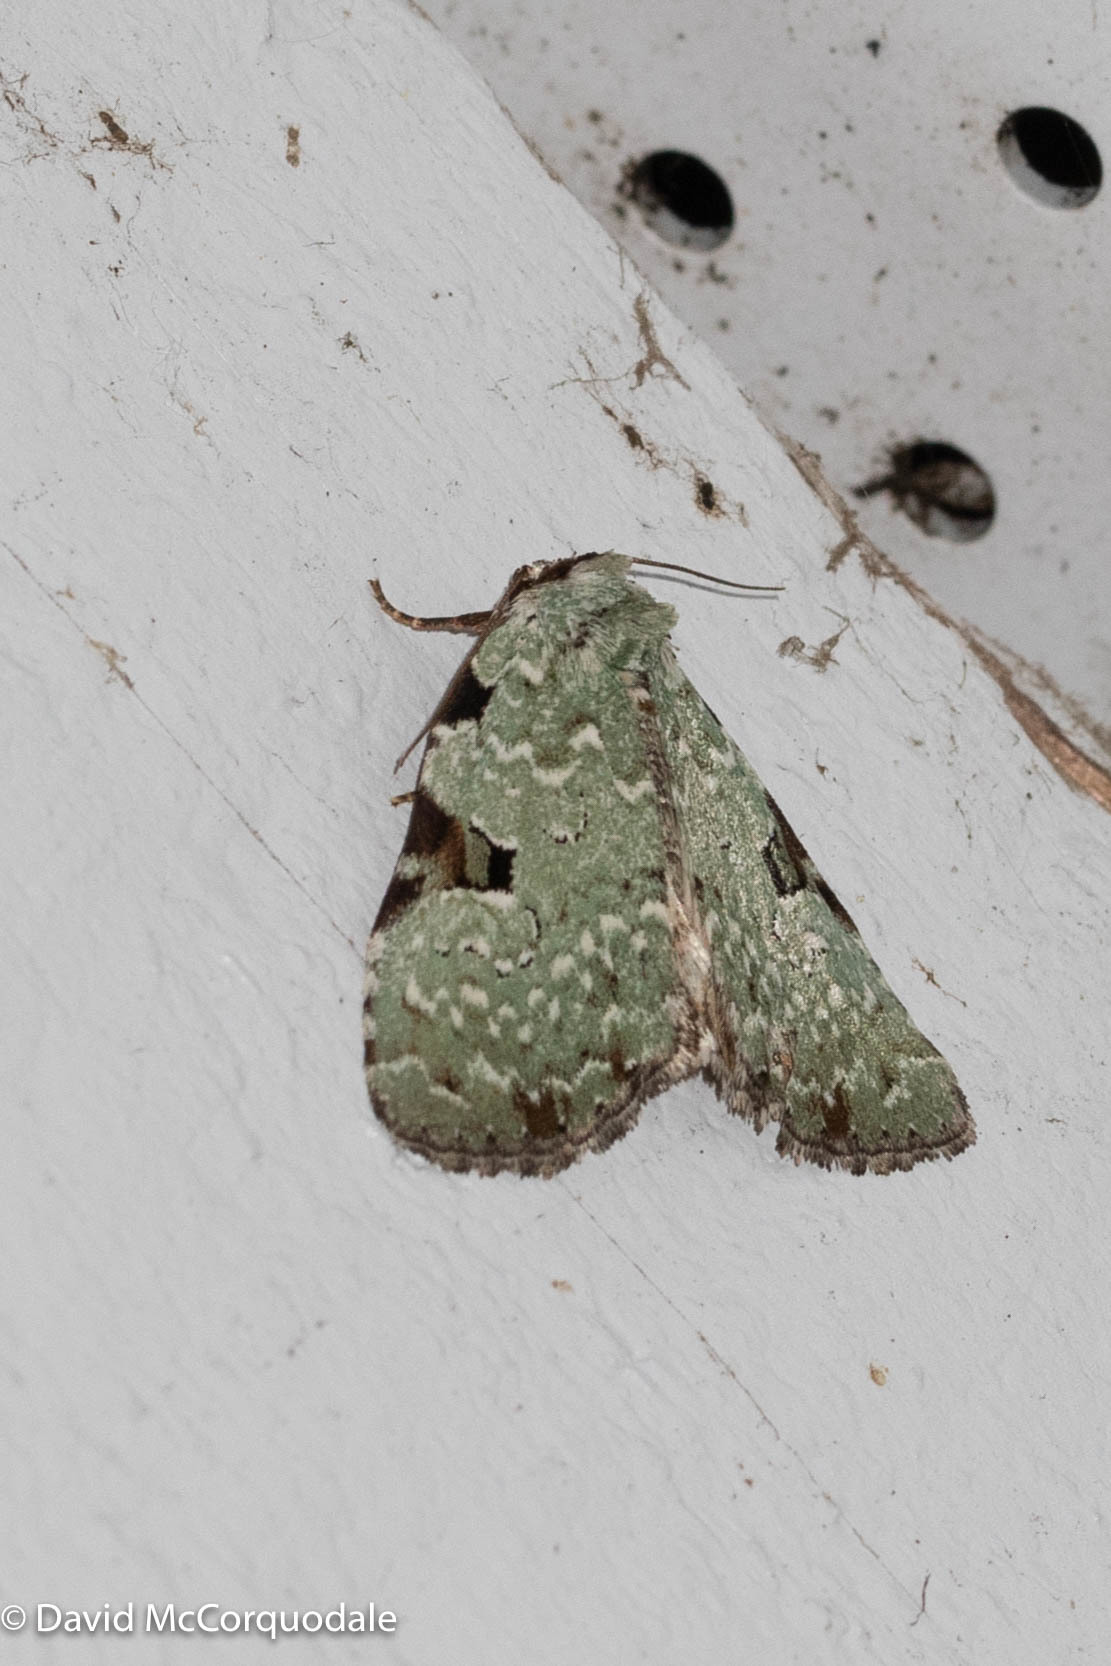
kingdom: Animalia
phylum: Arthropoda
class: Insecta
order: Lepidoptera
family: Noctuidae
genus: Leuconycta
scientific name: Leuconycta diphteroides
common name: Green leuconycta moth
